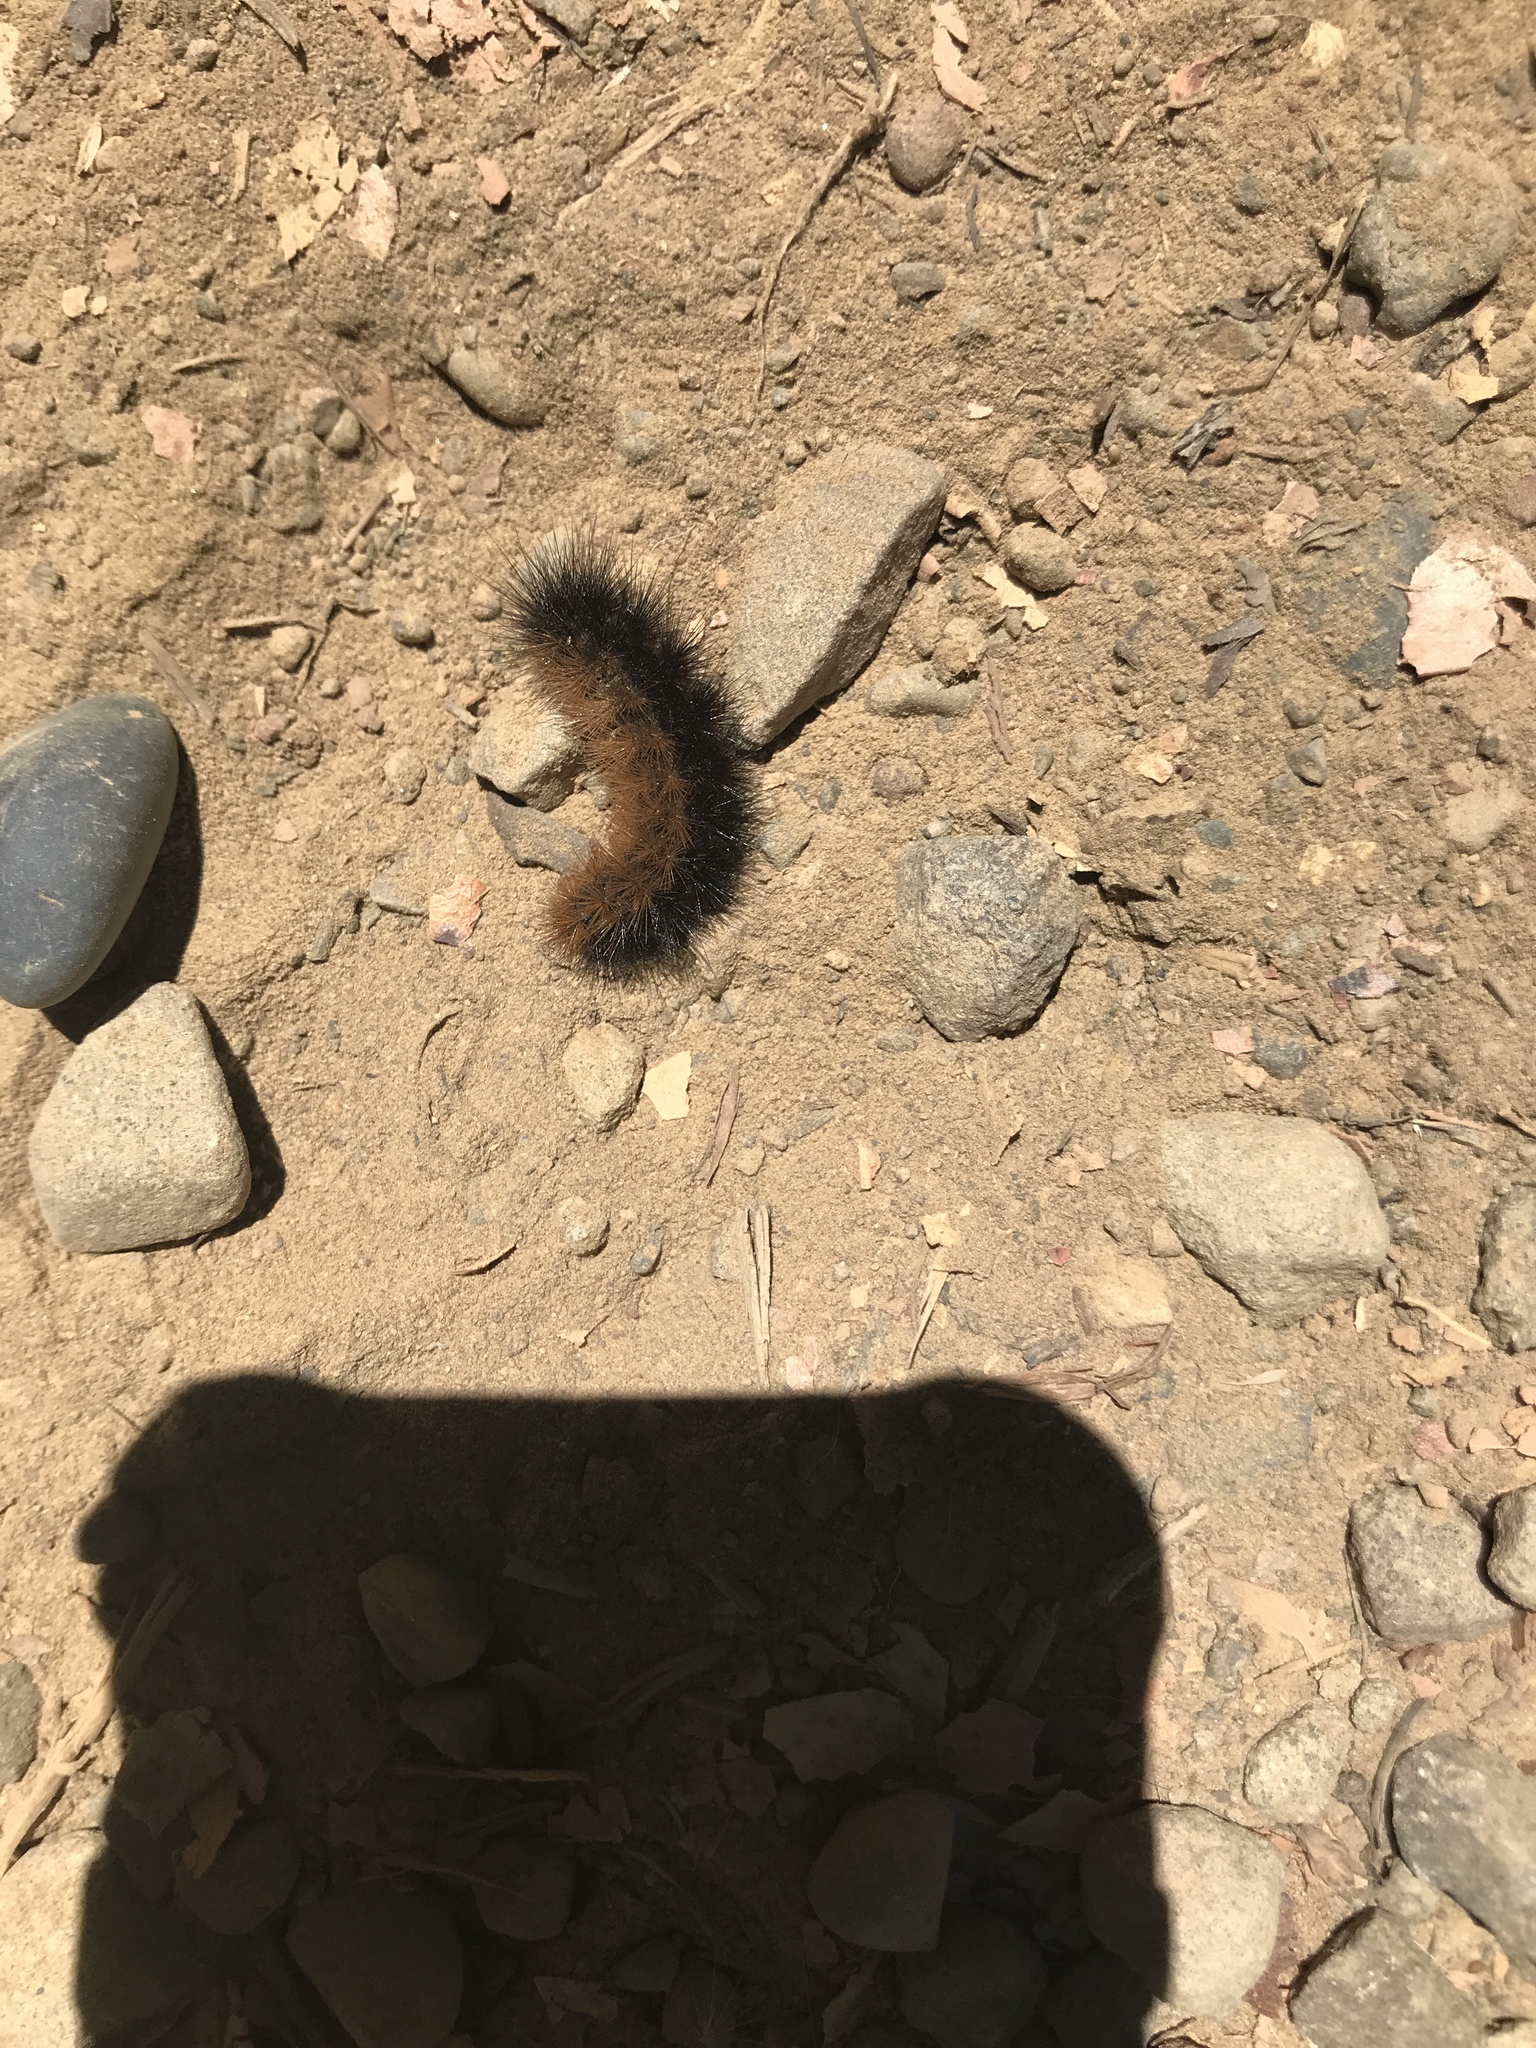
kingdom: Animalia
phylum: Arthropoda
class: Insecta
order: Lepidoptera
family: Erebidae
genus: Estigmene
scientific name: Estigmene acrea
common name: Salt marsh moth
